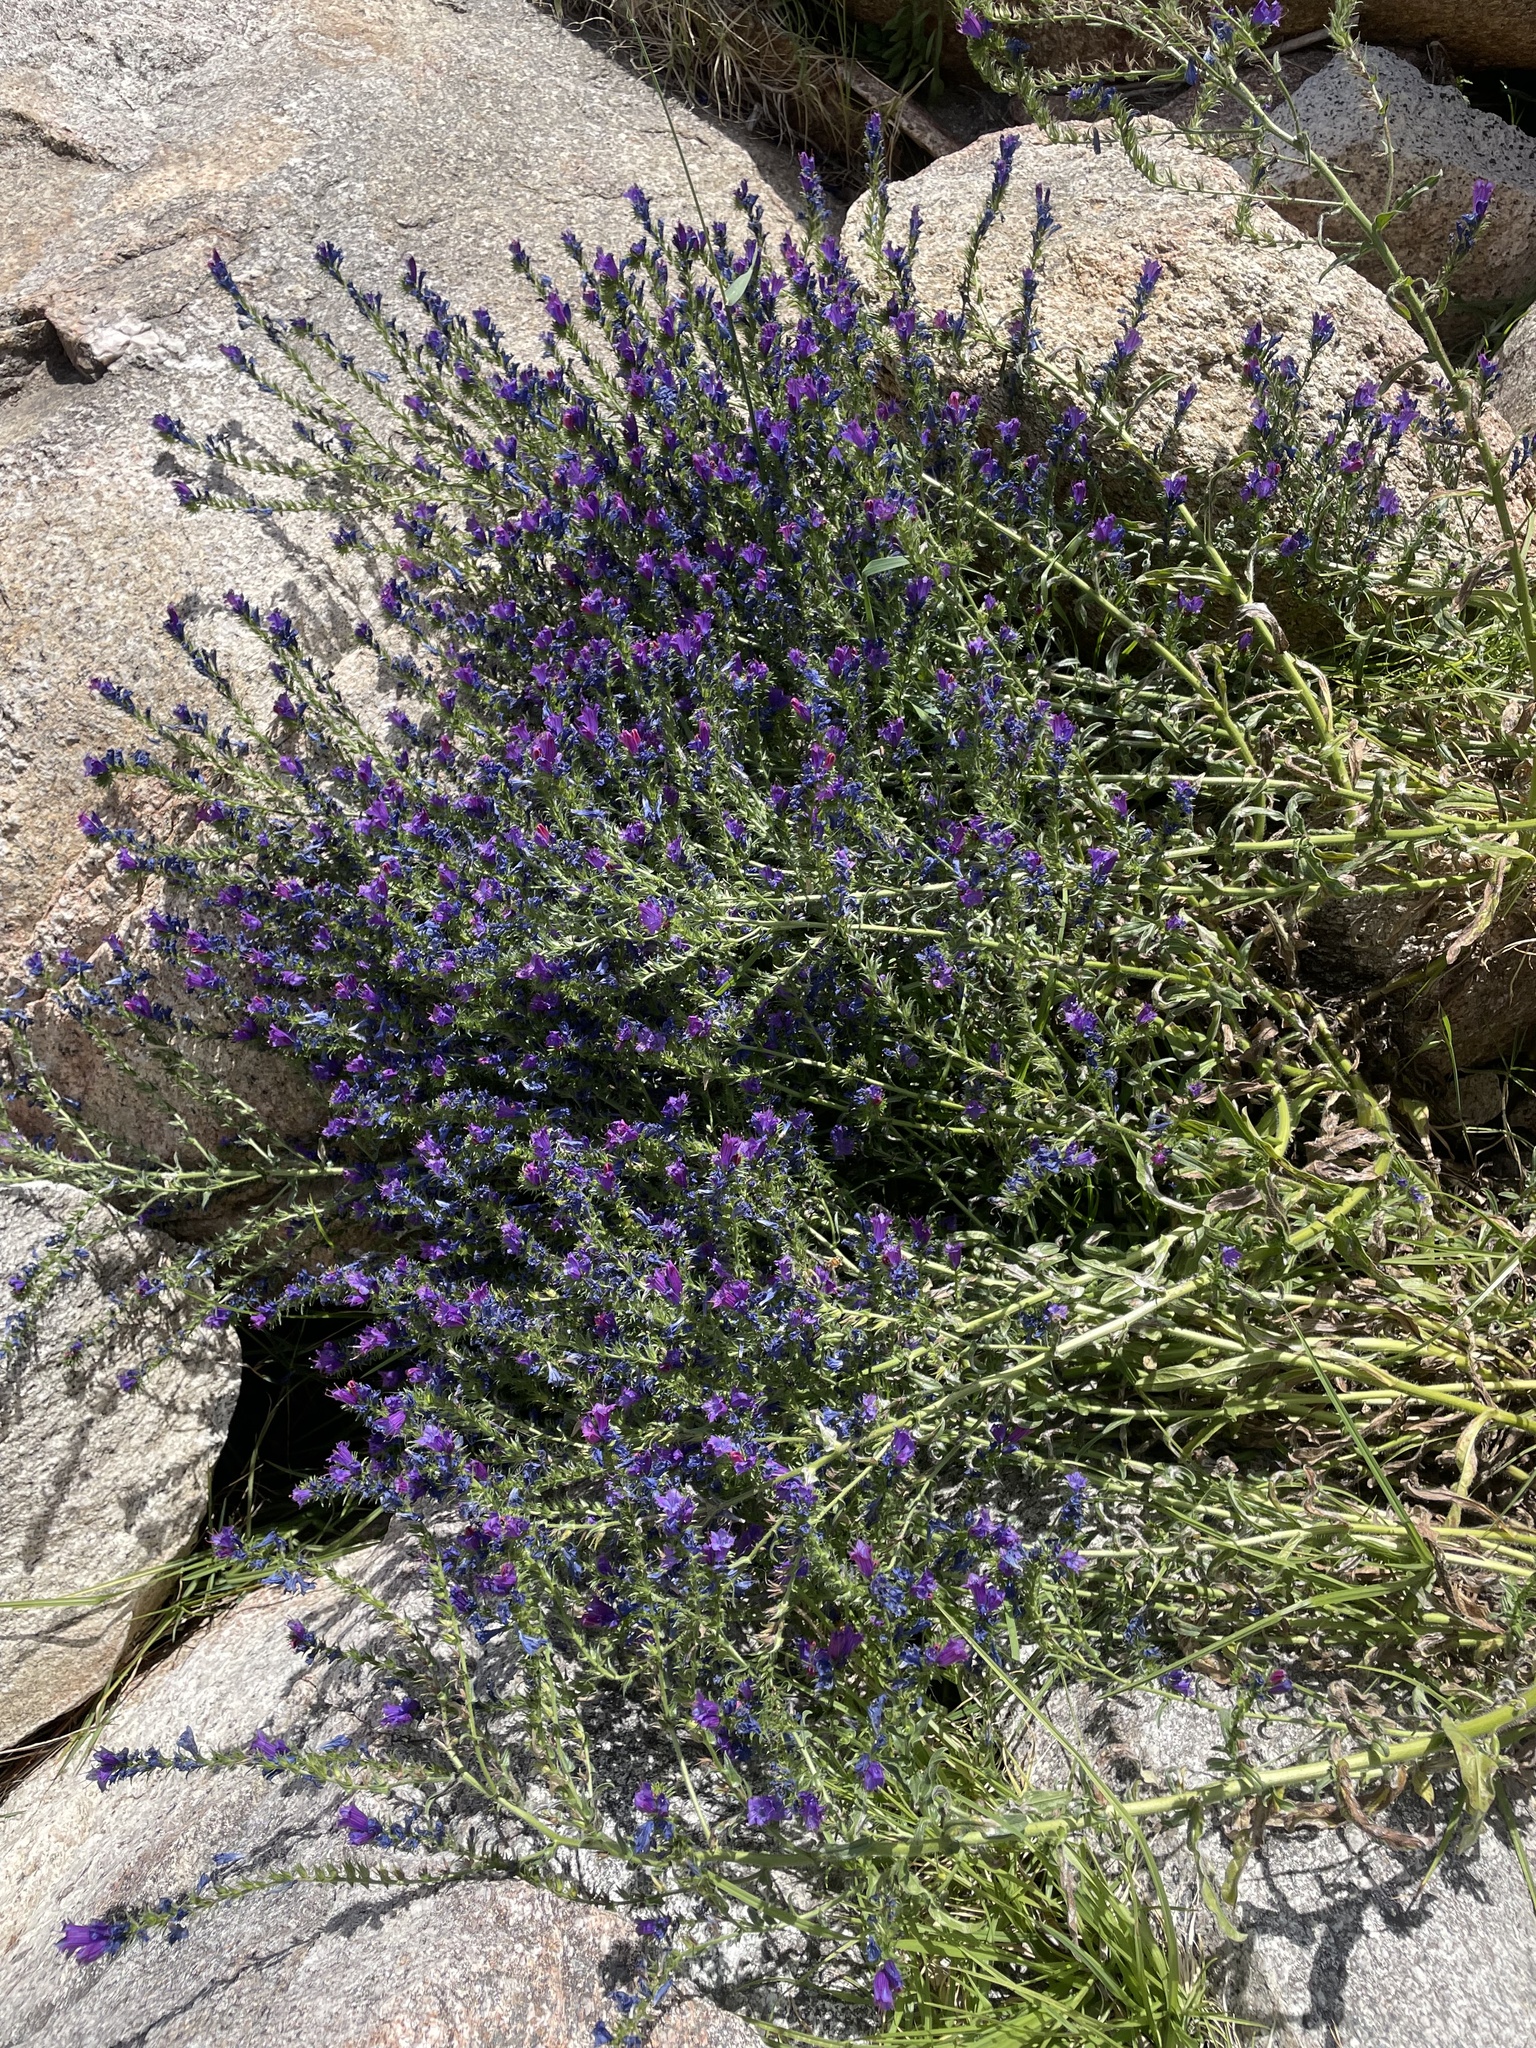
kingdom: Plantae
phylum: Tracheophyta
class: Magnoliopsida
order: Boraginales
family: Boraginaceae
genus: Echium
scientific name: Echium plantagineum
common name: Purple viper's-bugloss
